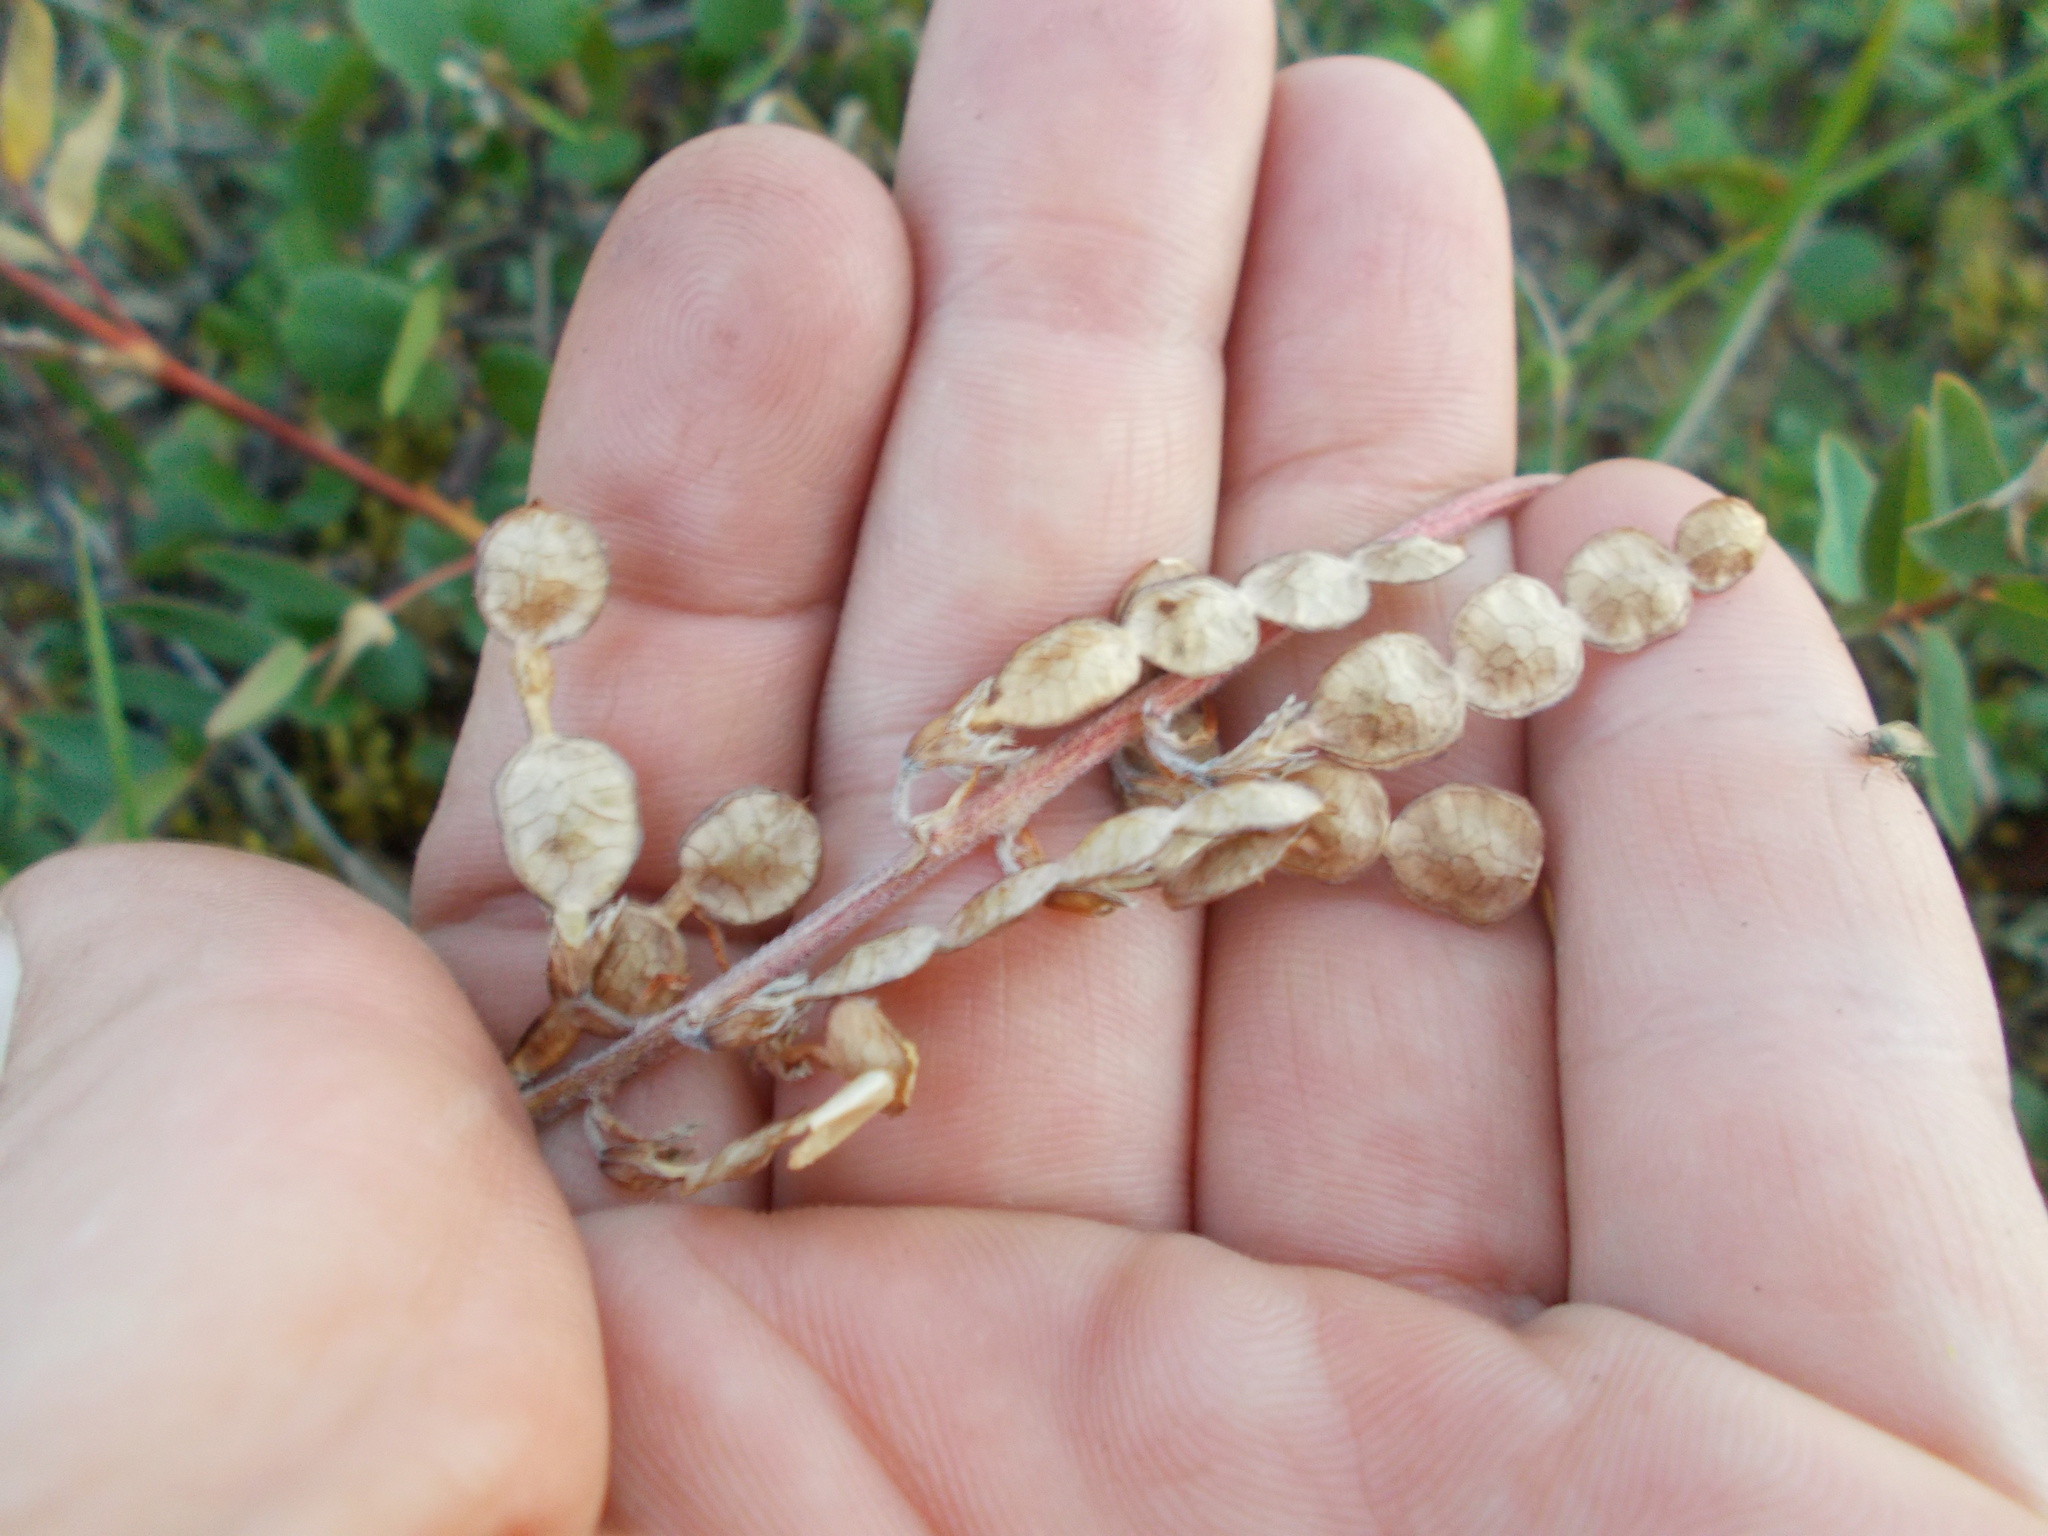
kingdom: Plantae
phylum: Tracheophyta
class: Magnoliopsida
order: Fabales
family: Fabaceae
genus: Hedysarum
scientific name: Hedysarum hedysaroides
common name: Alpine french-honeysuckle
